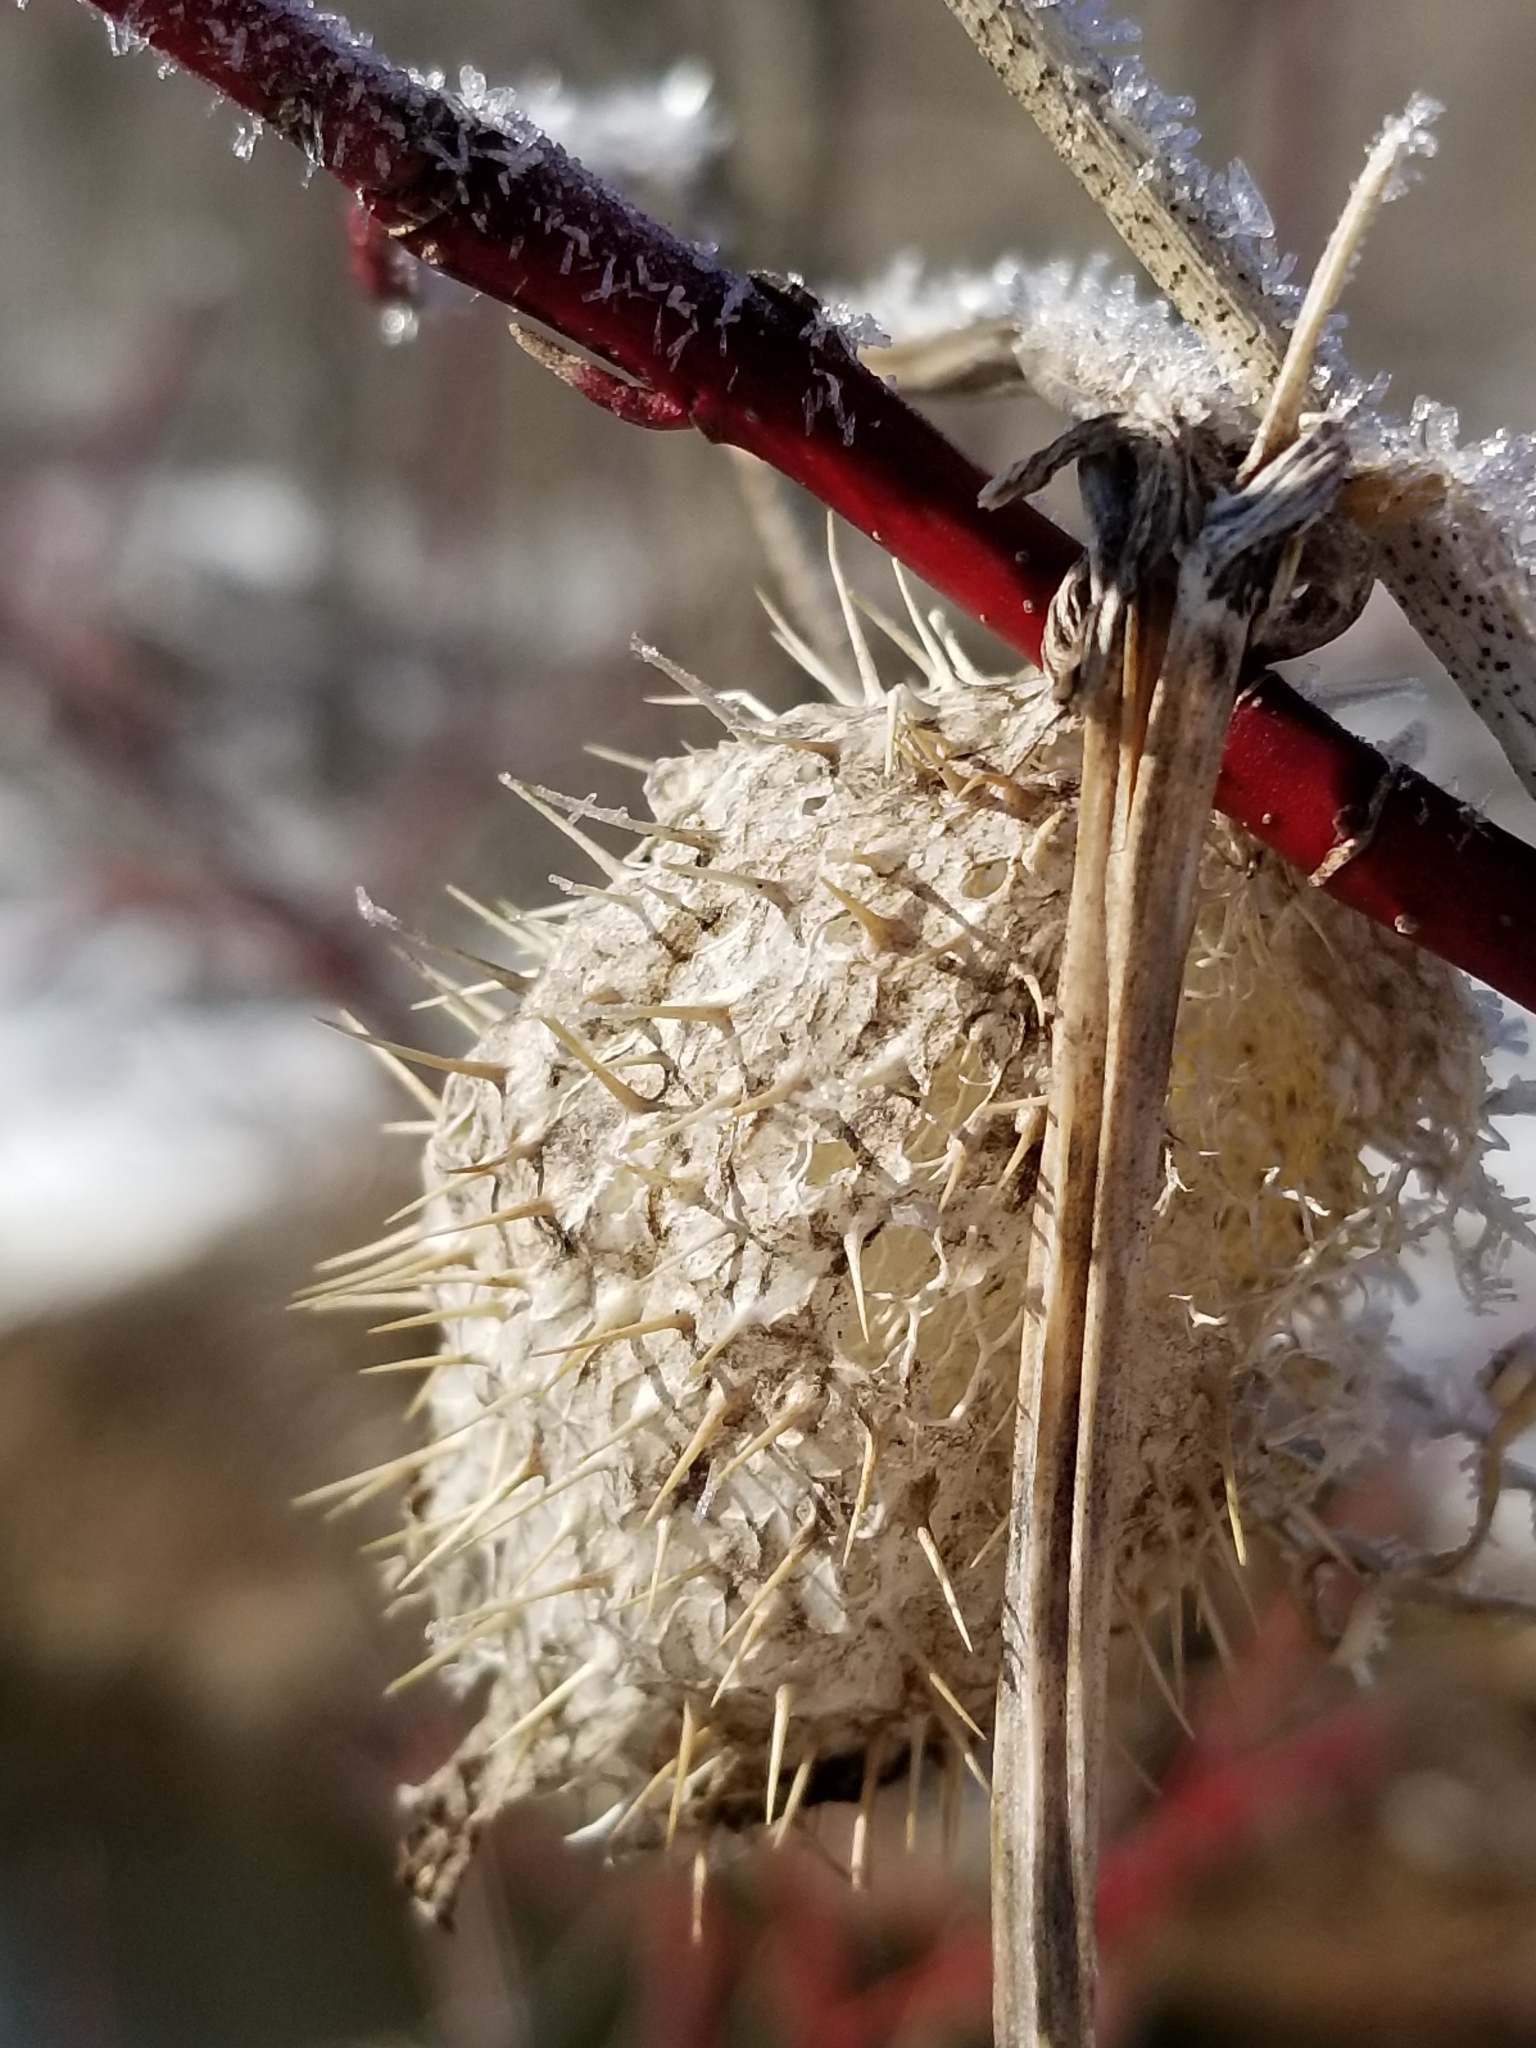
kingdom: Plantae
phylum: Tracheophyta
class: Magnoliopsida
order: Cucurbitales
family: Cucurbitaceae
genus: Echinocystis
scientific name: Echinocystis lobata
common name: Wild cucumber
